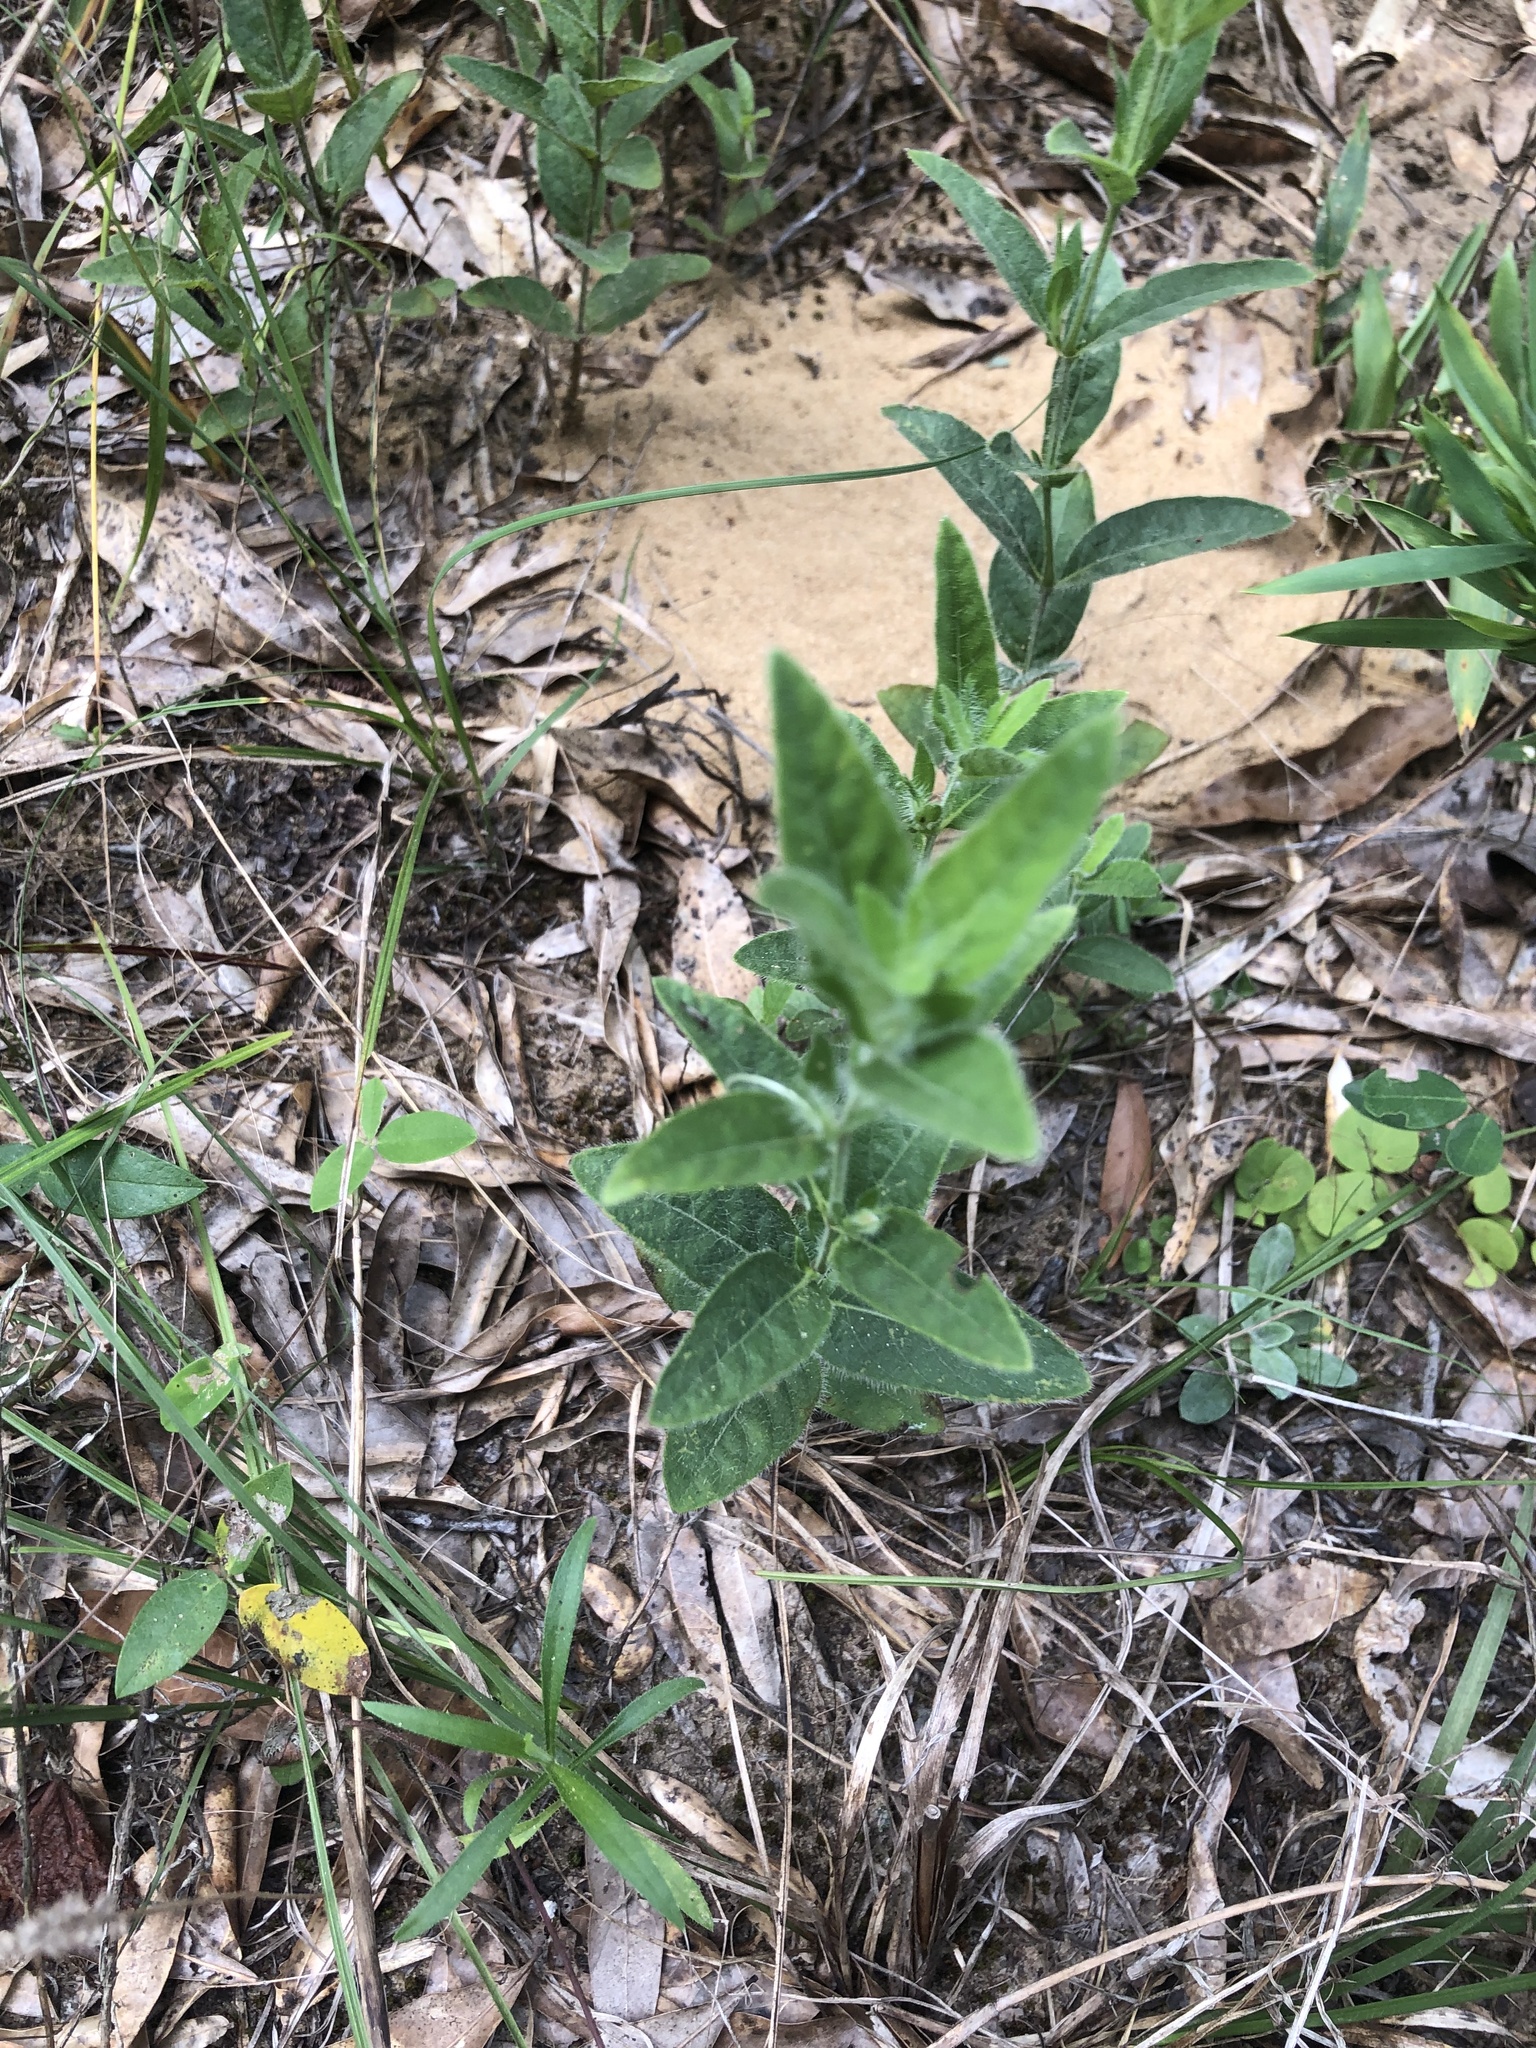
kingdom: Plantae
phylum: Tracheophyta
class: Magnoliopsida
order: Lamiales
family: Acanthaceae
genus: Ruellia
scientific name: Ruellia humilis
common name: Fringe-leaf ruellia
